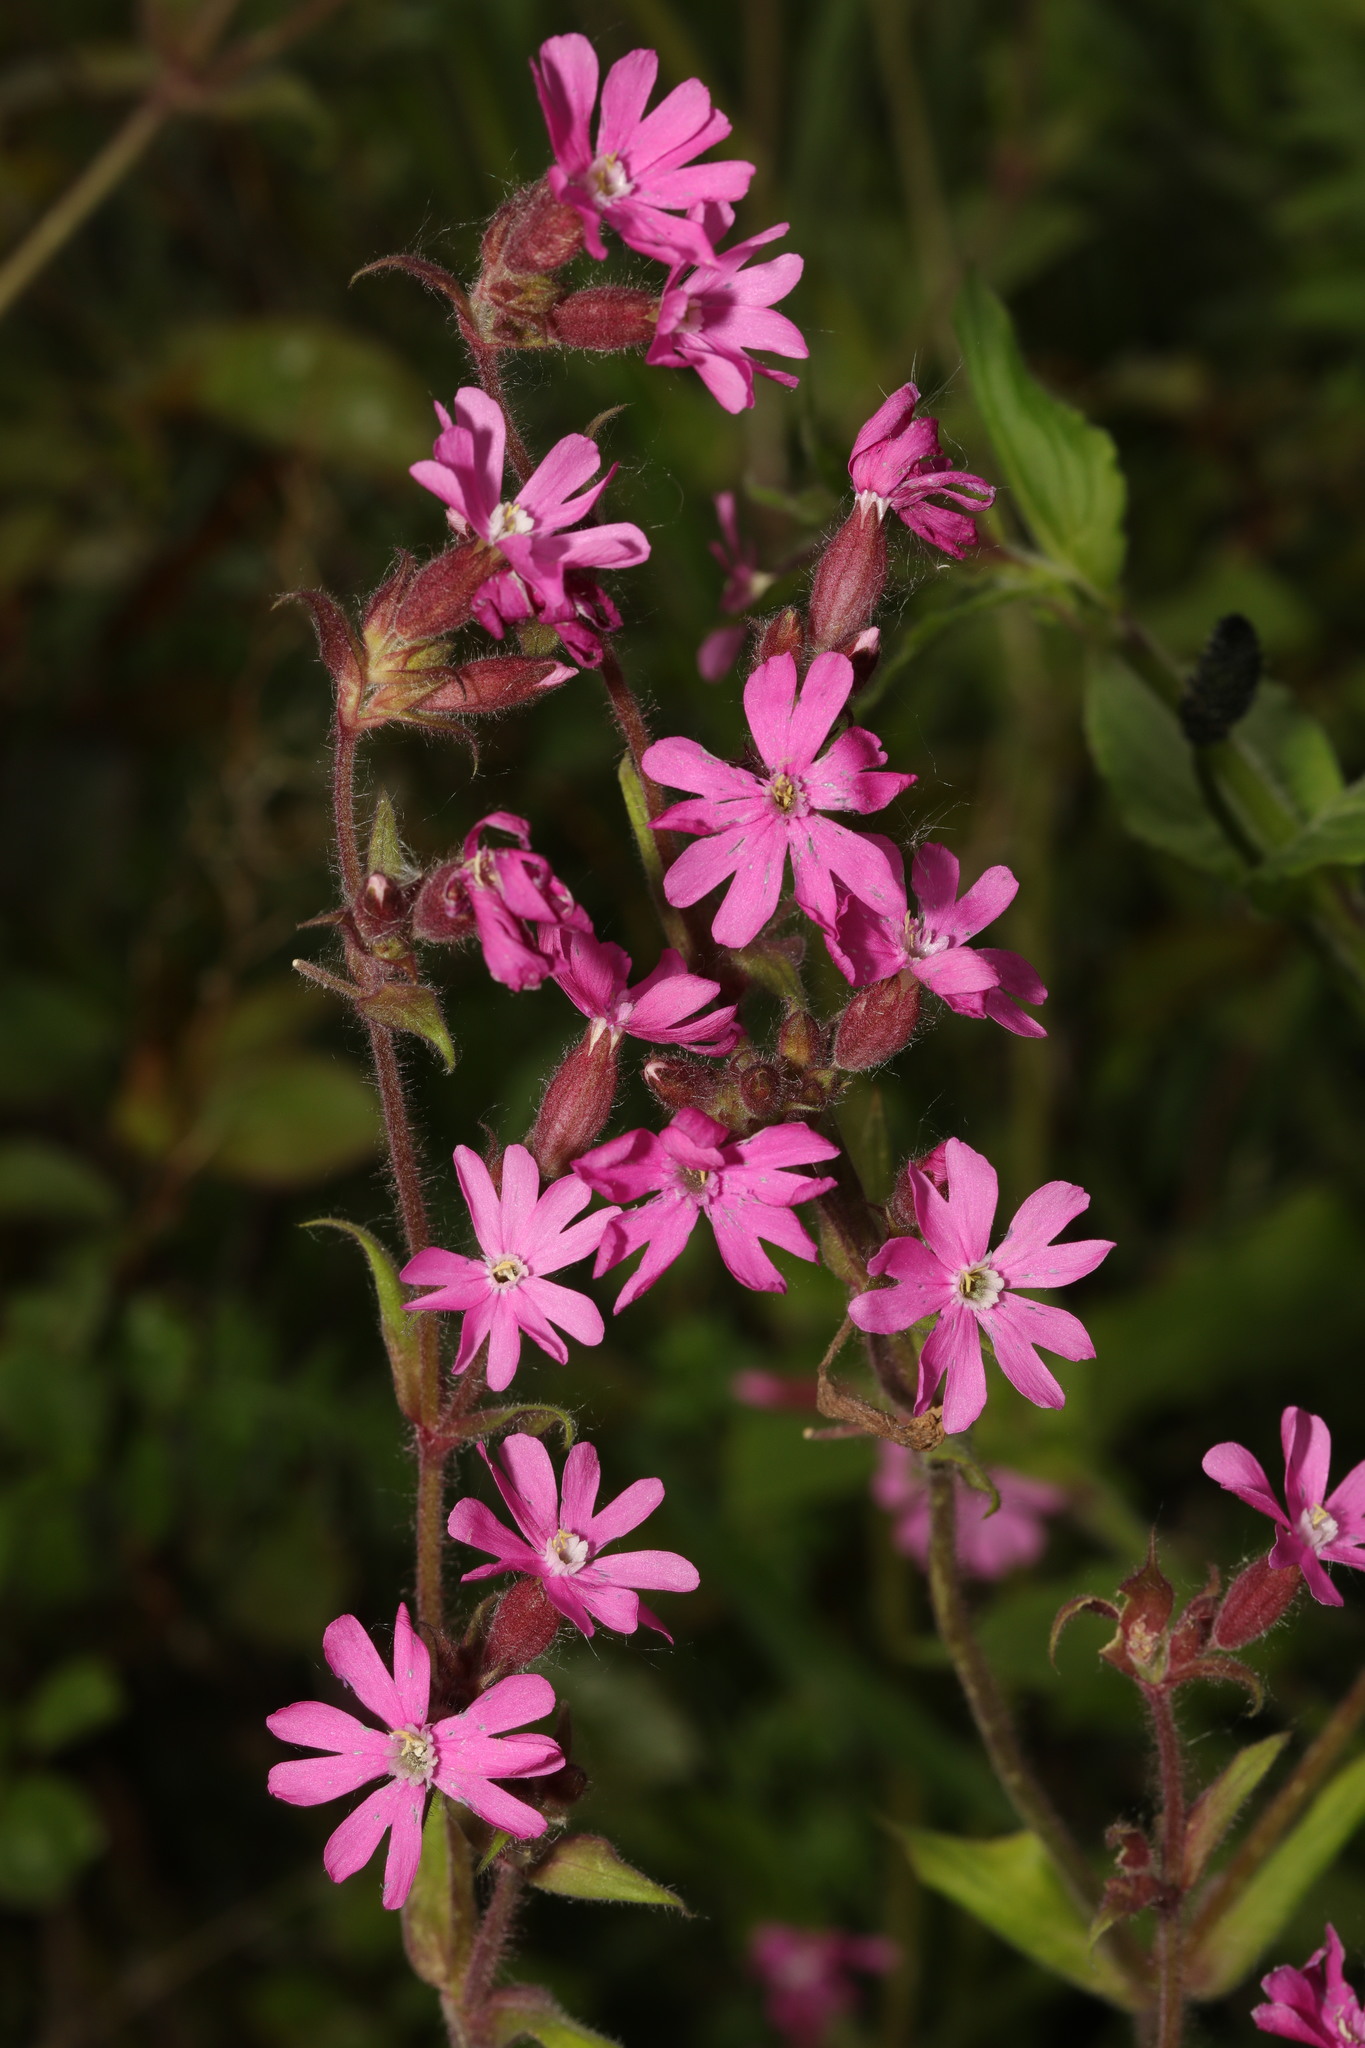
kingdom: Plantae
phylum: Tracheophyta
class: Magnoliopsida
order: Caryophyllales
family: Caryophyllaceae
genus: Silene
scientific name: Silene dioica
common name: Red campion
